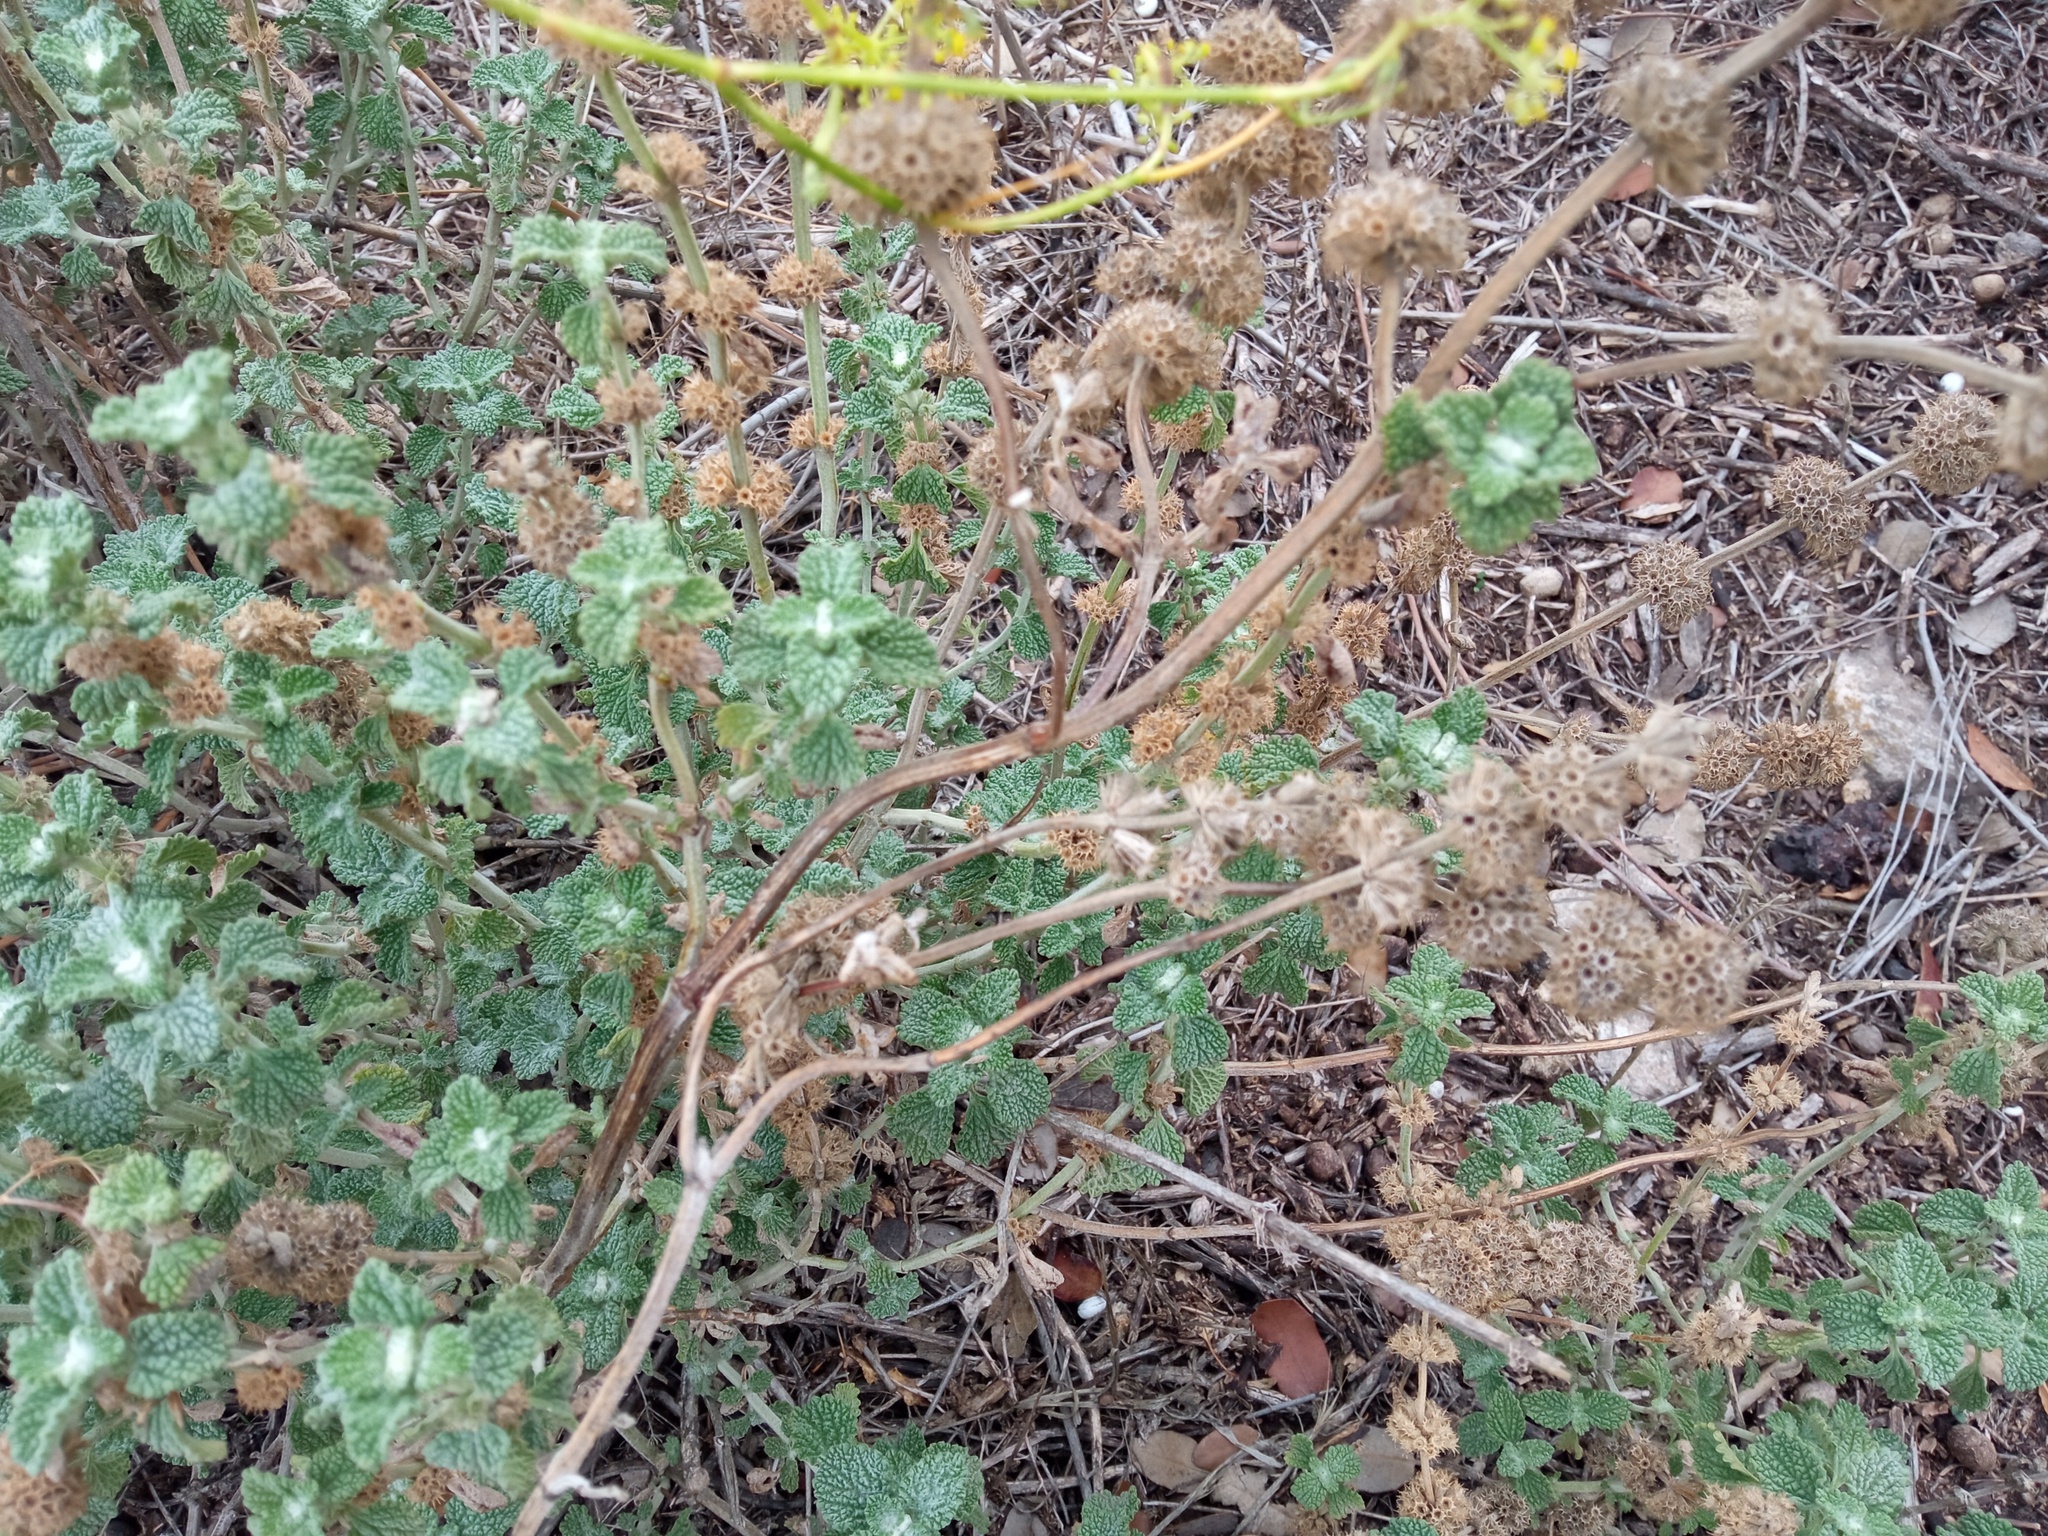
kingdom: Plantae
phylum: Tracheophyta
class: Magnoliopsida
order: Lamiales
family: Lamiaceae
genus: Marrubium
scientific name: Marrubium vulgare
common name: Horehound
